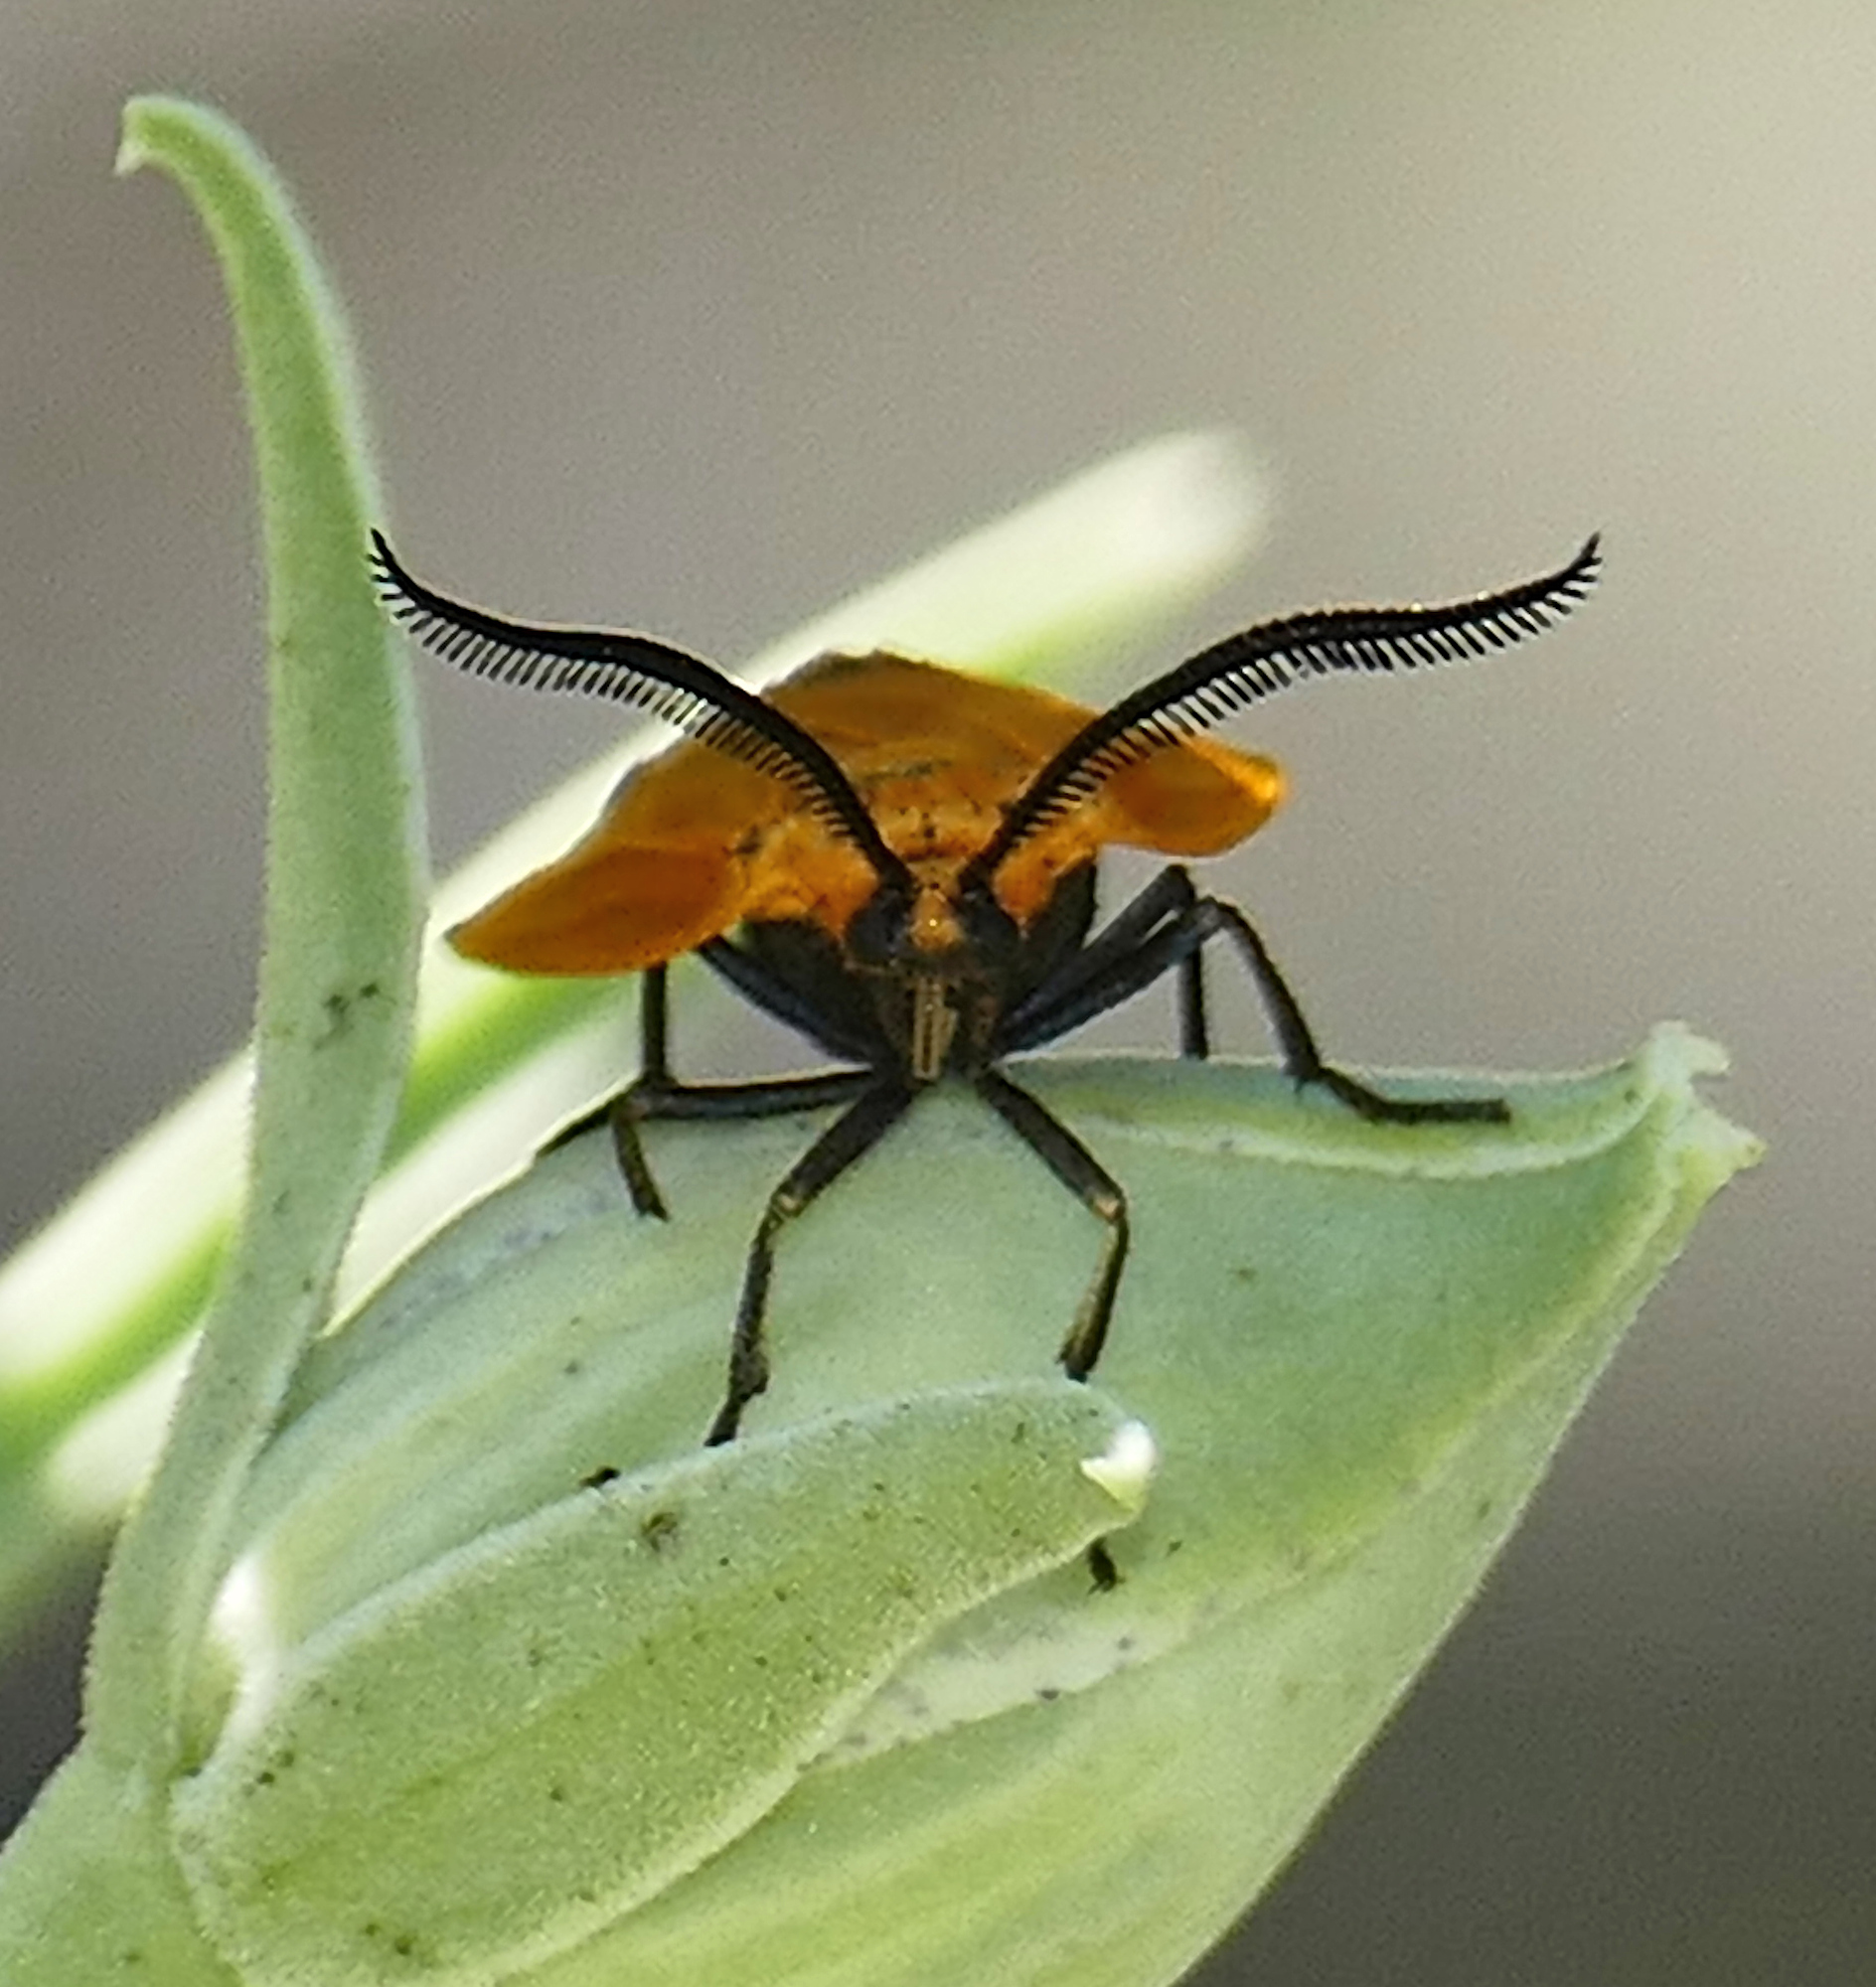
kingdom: Animalia
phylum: Arthropoda
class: Insecta
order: Lepidoptera
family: Zygaenidae
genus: Neoalbertia
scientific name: Neoalbertia constans
